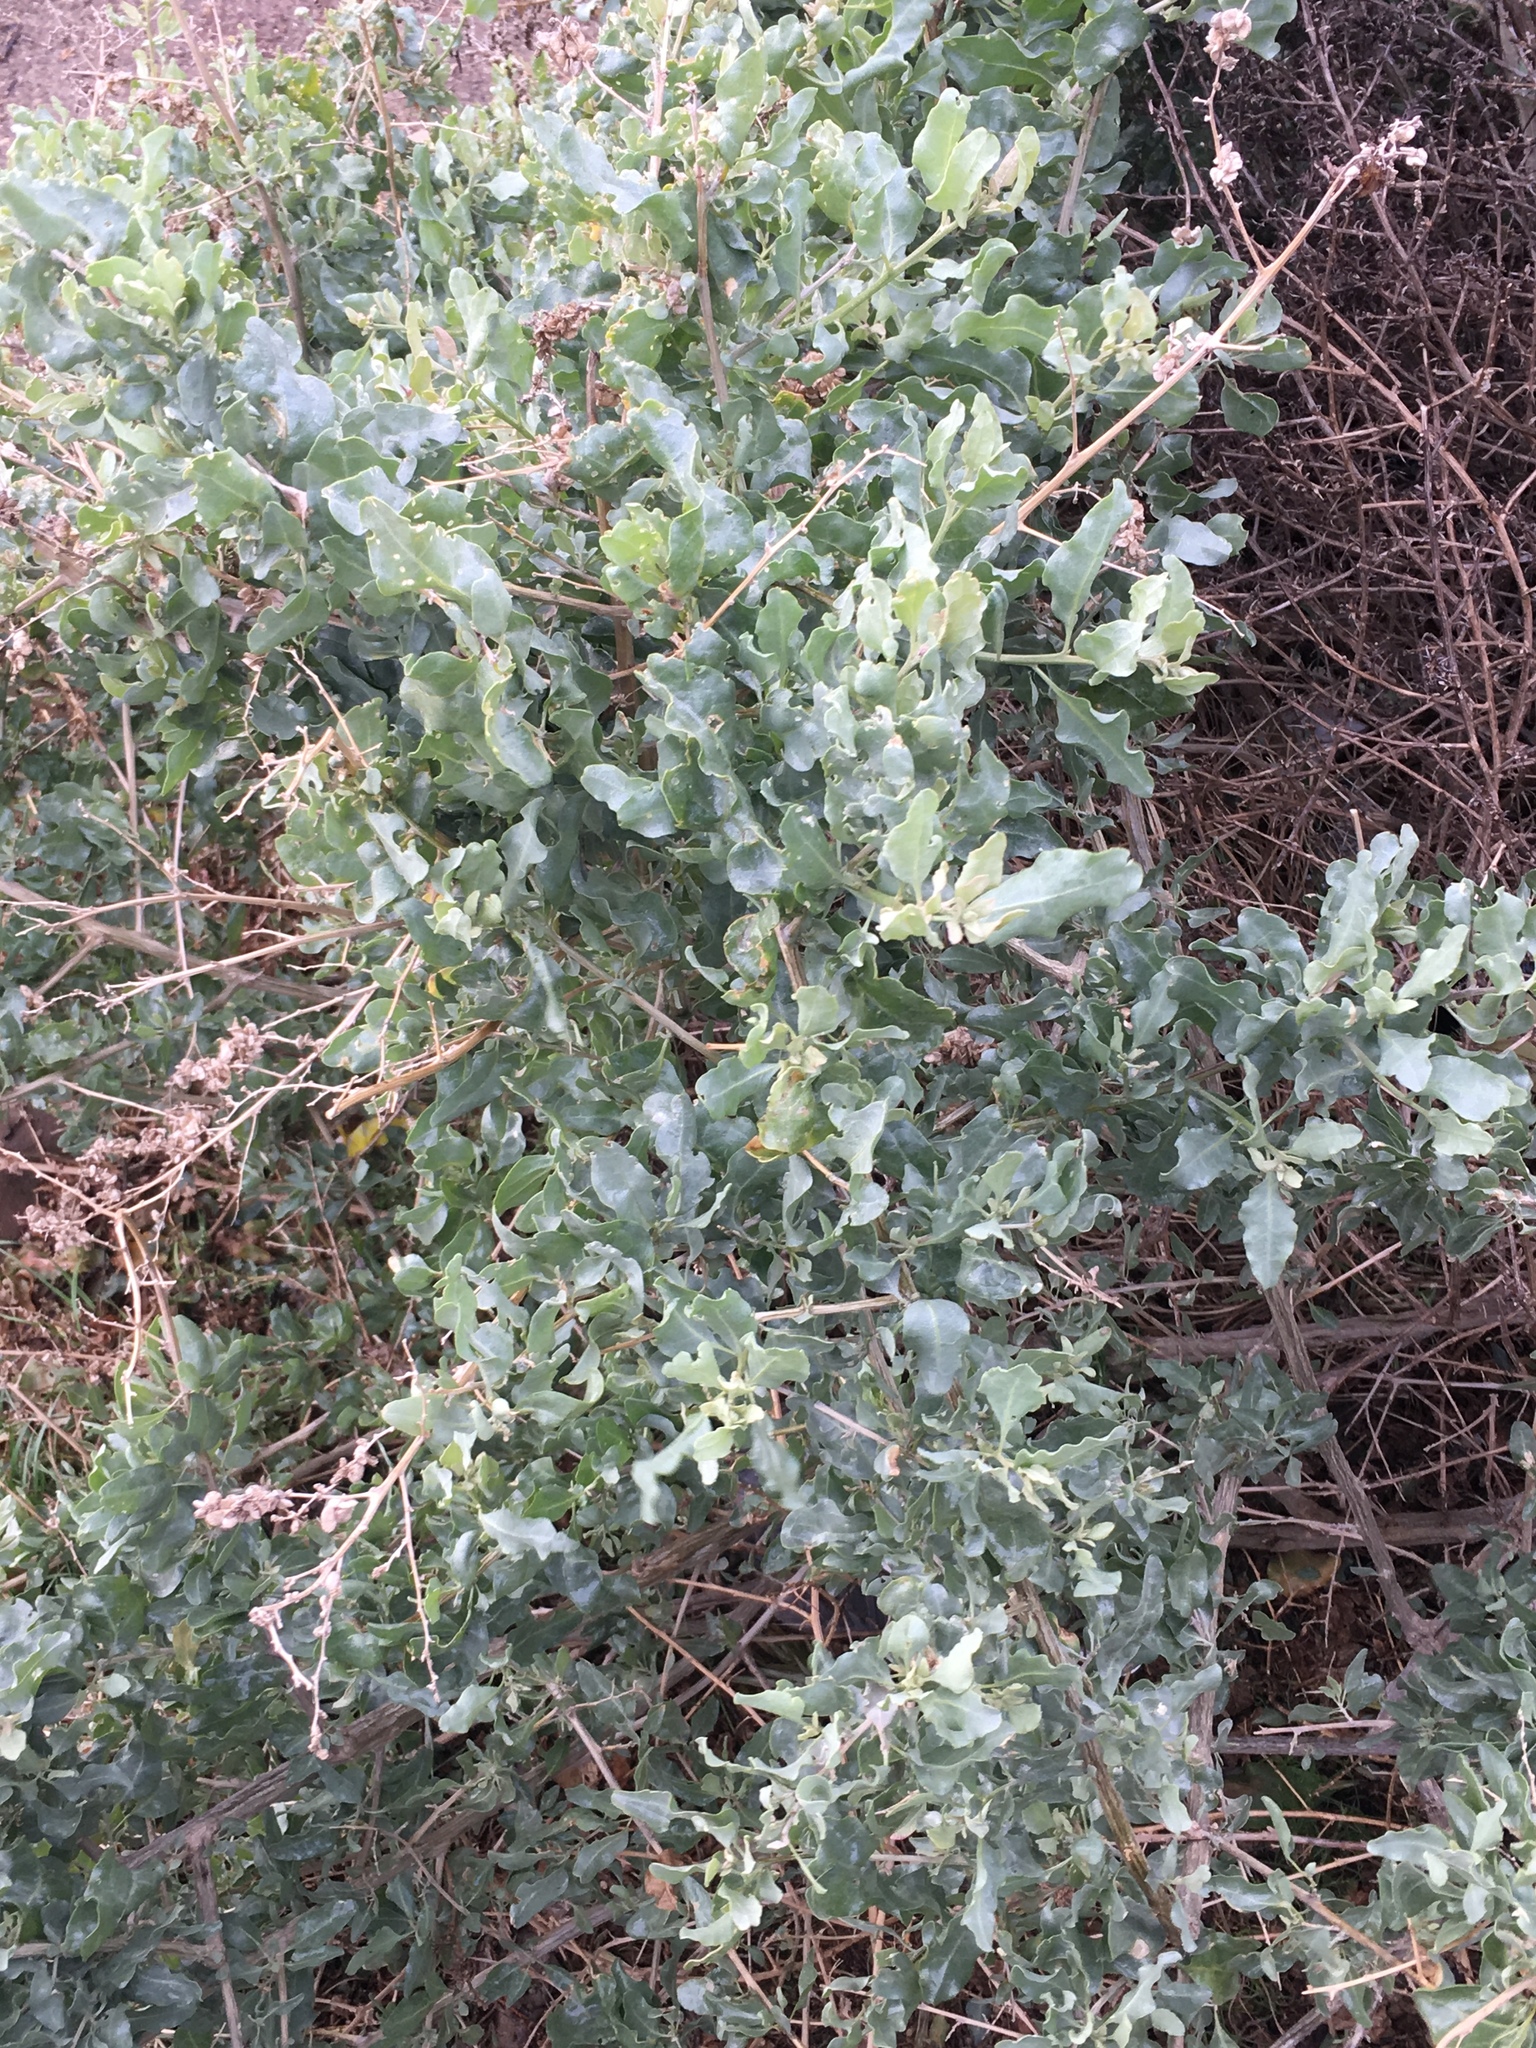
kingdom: Plantae
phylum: Tracheophyta
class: Magnoliopsida
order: Caryophyllales
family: Amaranthaceae
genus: Atriplex
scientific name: Atriplex lentiformis
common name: Big saltbush
